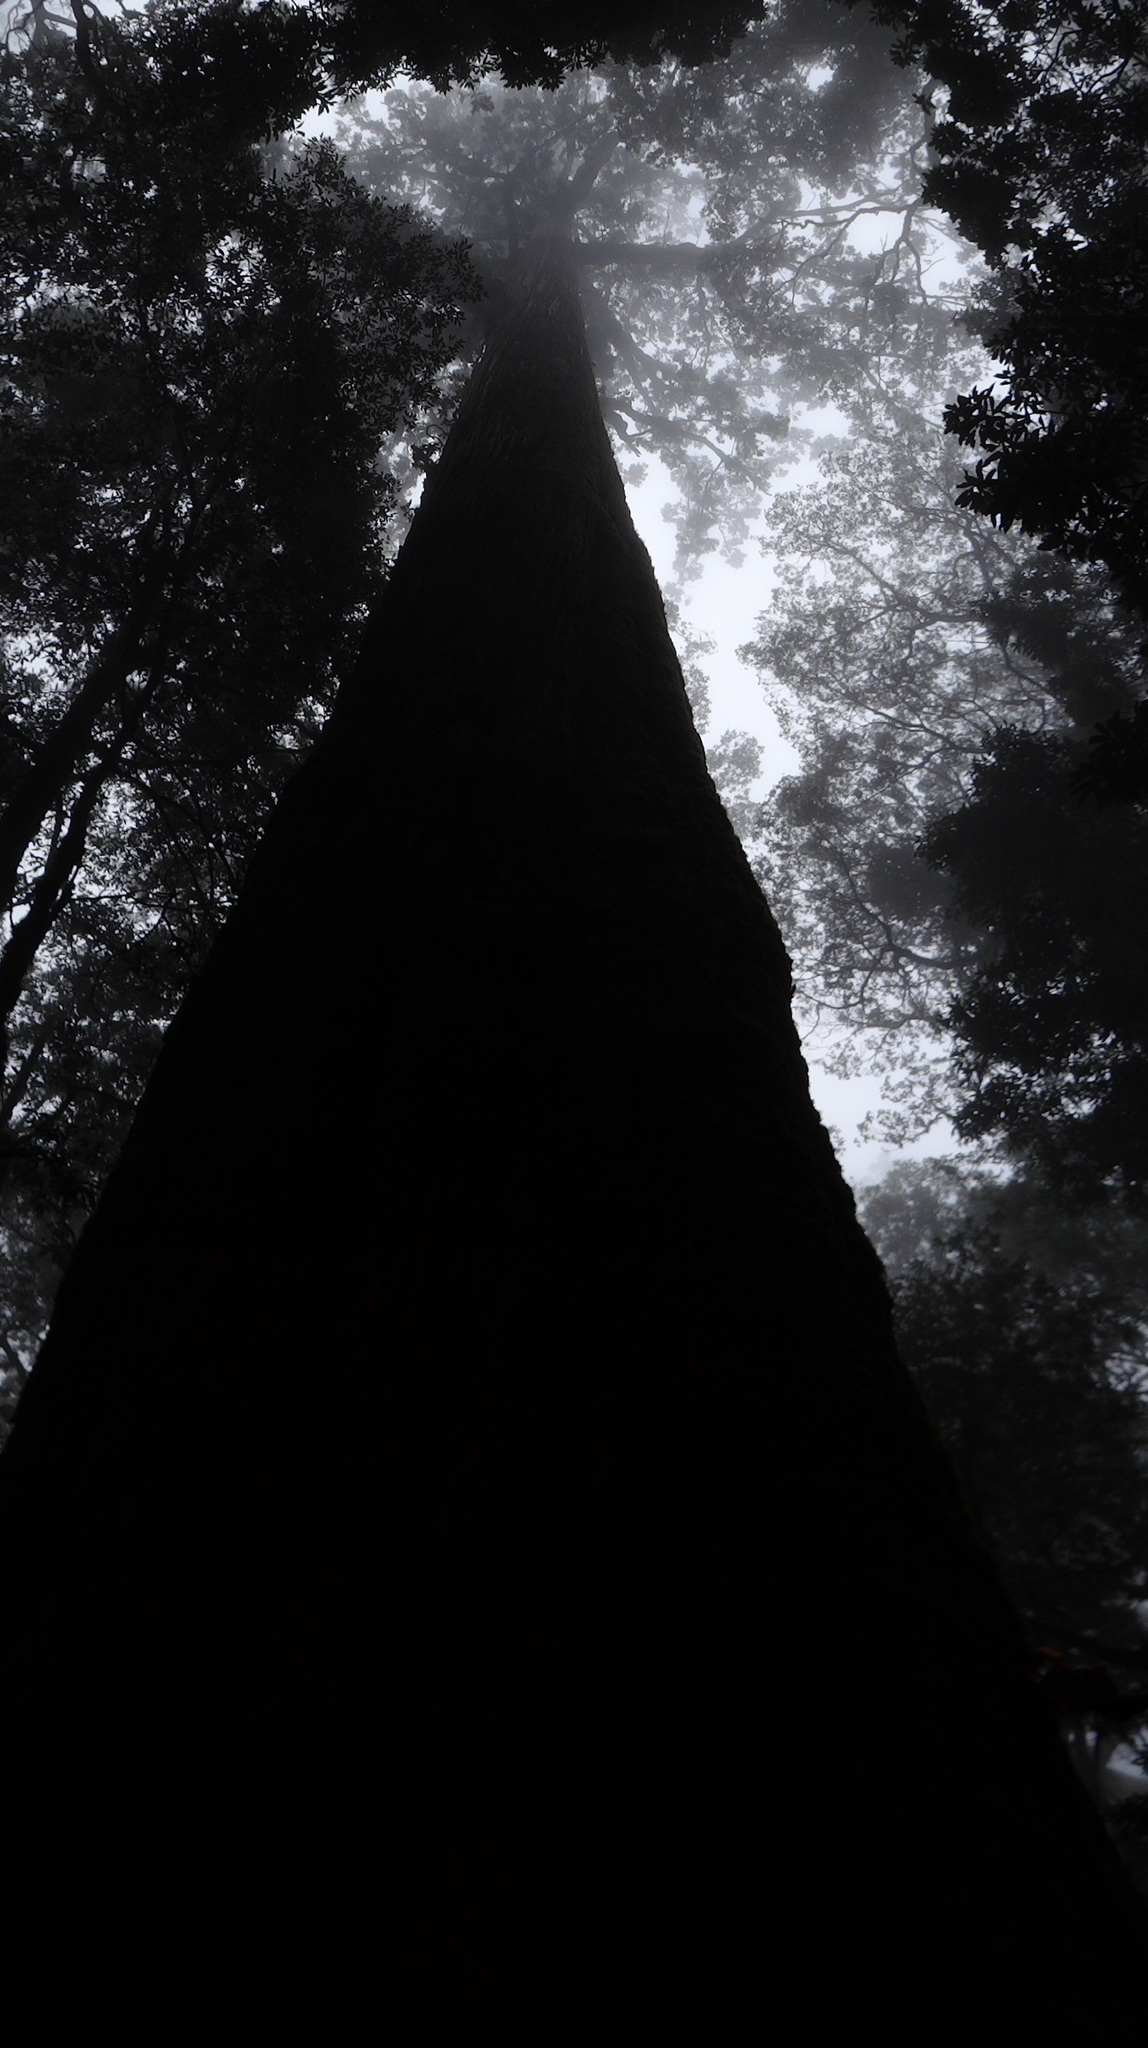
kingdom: Plantae
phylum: Tracheophyta
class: Pinopsida
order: Pinales
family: Cupressaceae
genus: Taiwania
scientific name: Taiwania cryptomerioides
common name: Coffin tree
